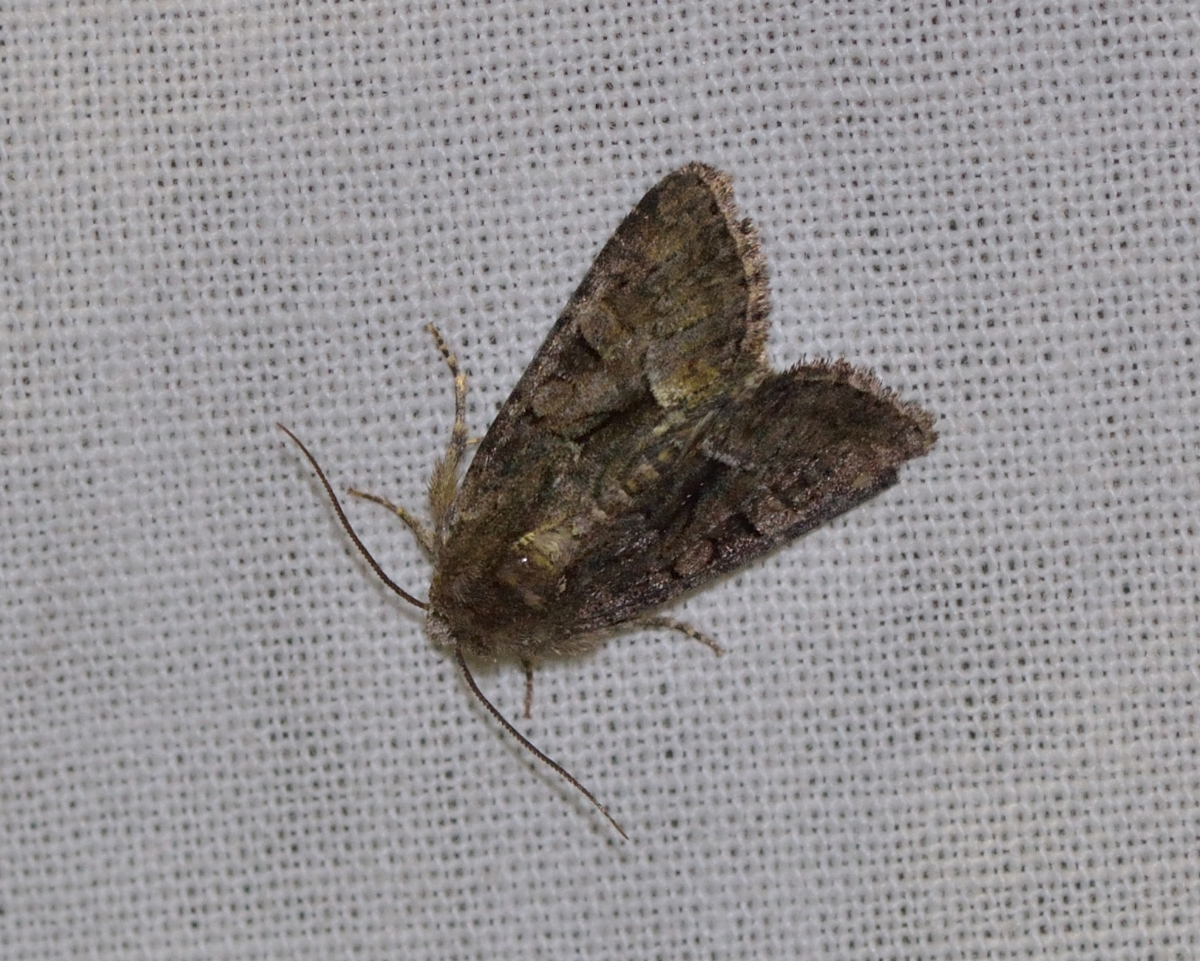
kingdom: Animalia
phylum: Arthropoda
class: Insecta
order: Lepidoptera
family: Noctuidae
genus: Oligia
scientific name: Oligia latruncula
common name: Tawny marbled minor
